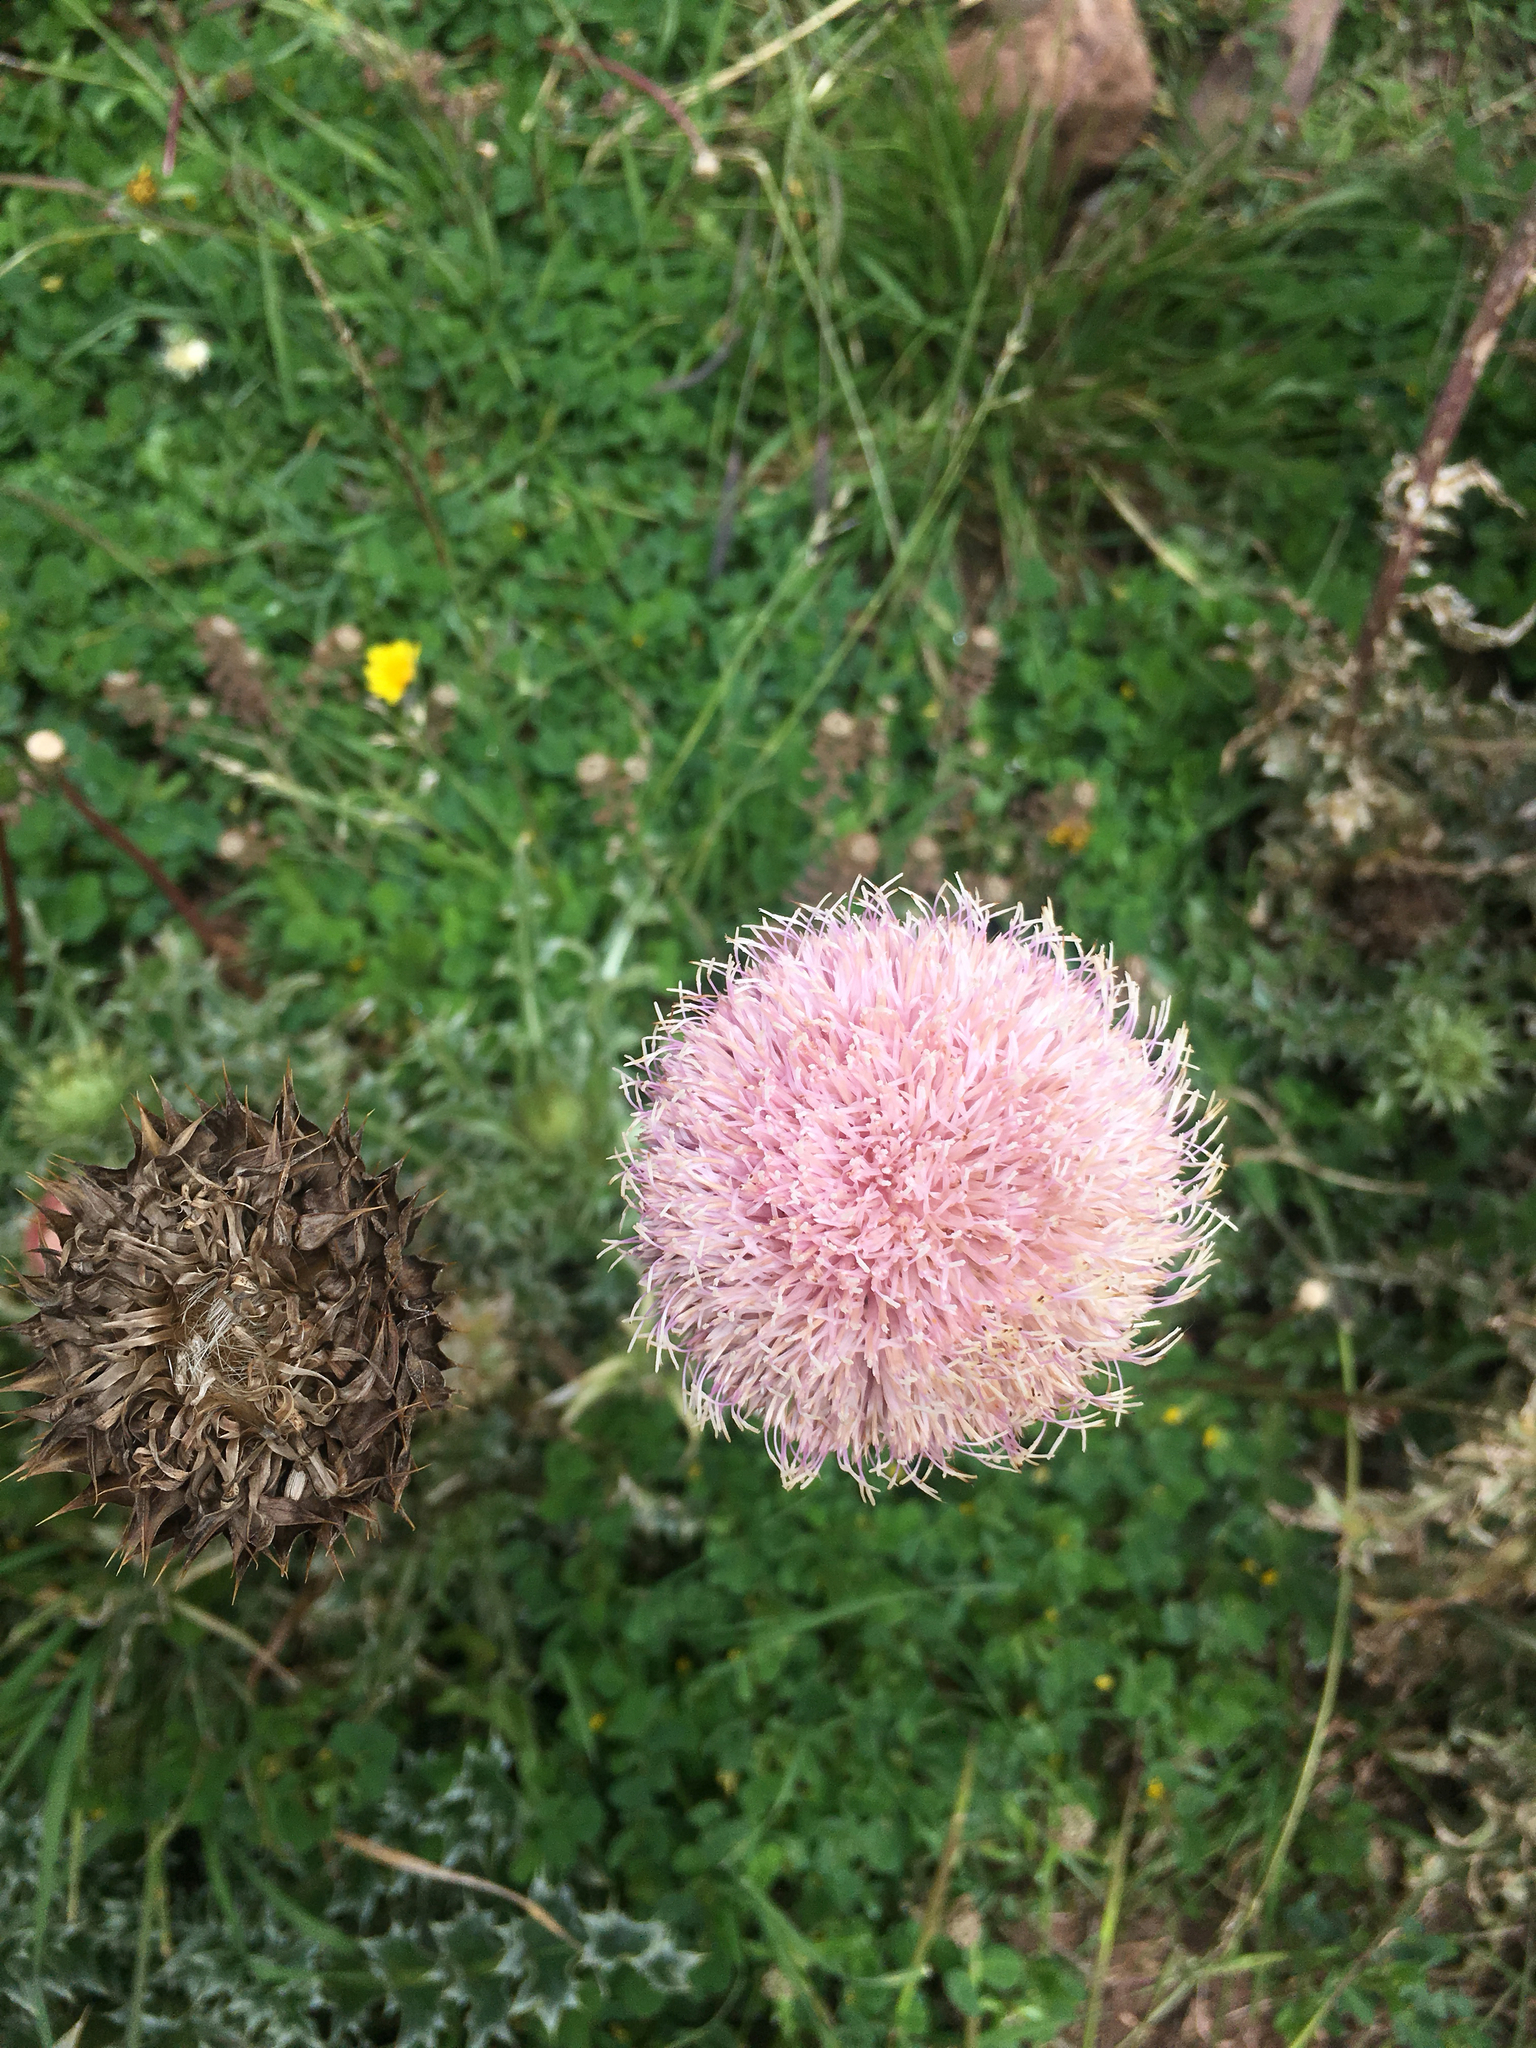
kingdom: Plantae
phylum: Tracheophyta
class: Magnoliopsida
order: Asterales
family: Asteraceae
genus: Carduus
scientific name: Carduus nutans
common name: Musk thistle
